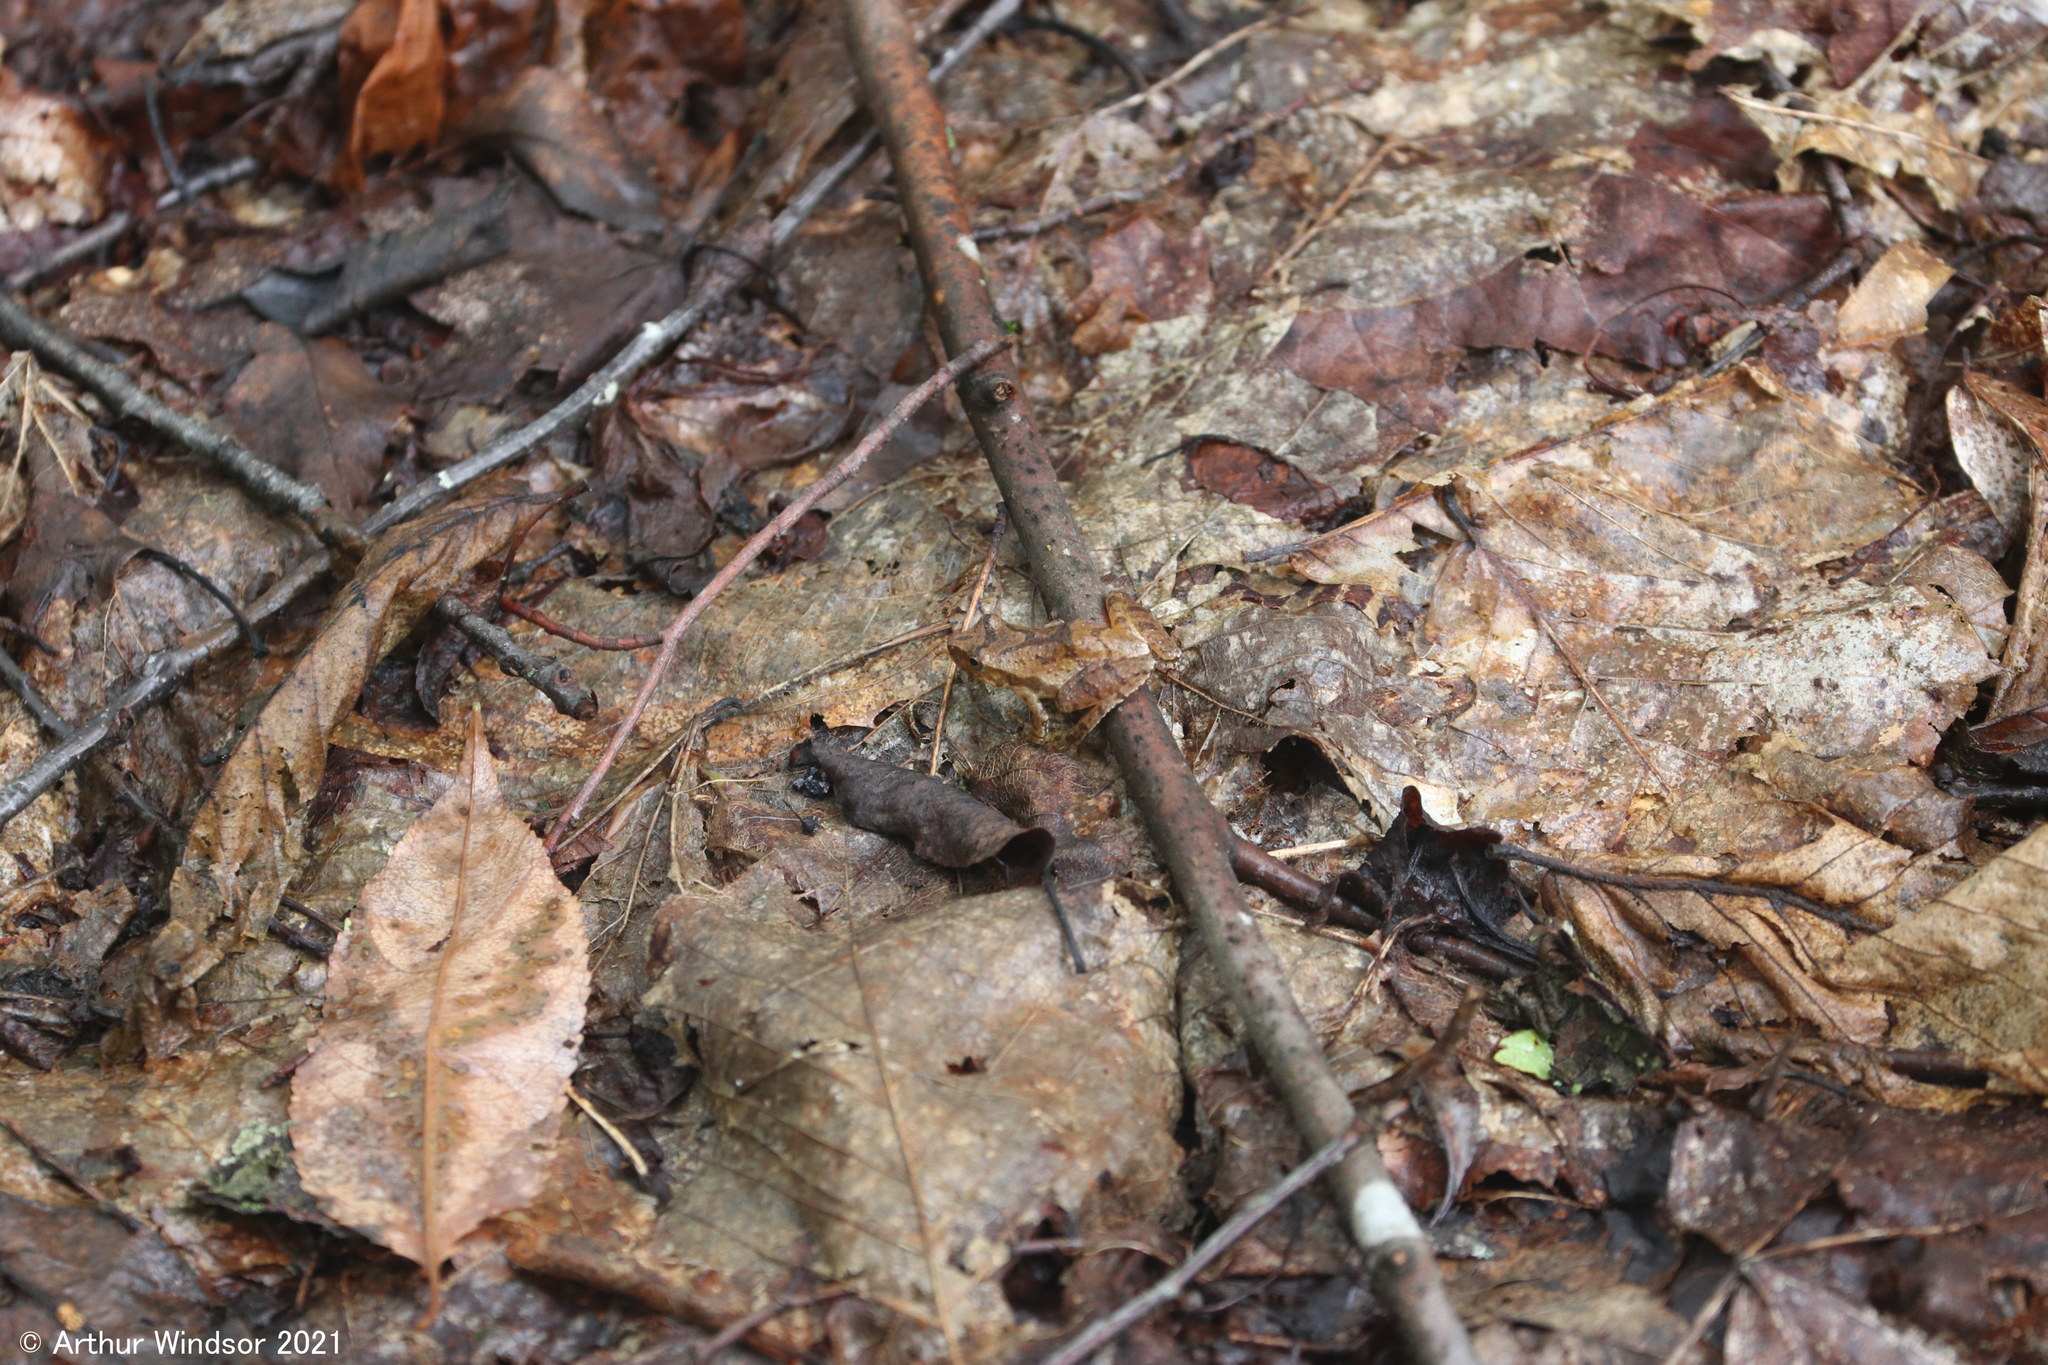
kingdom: Animalia
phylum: Chordata
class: Amphibia
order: Anura
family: Hylidae
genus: Pseudacris
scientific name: Pseudacris crucifer
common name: Spring peeper
